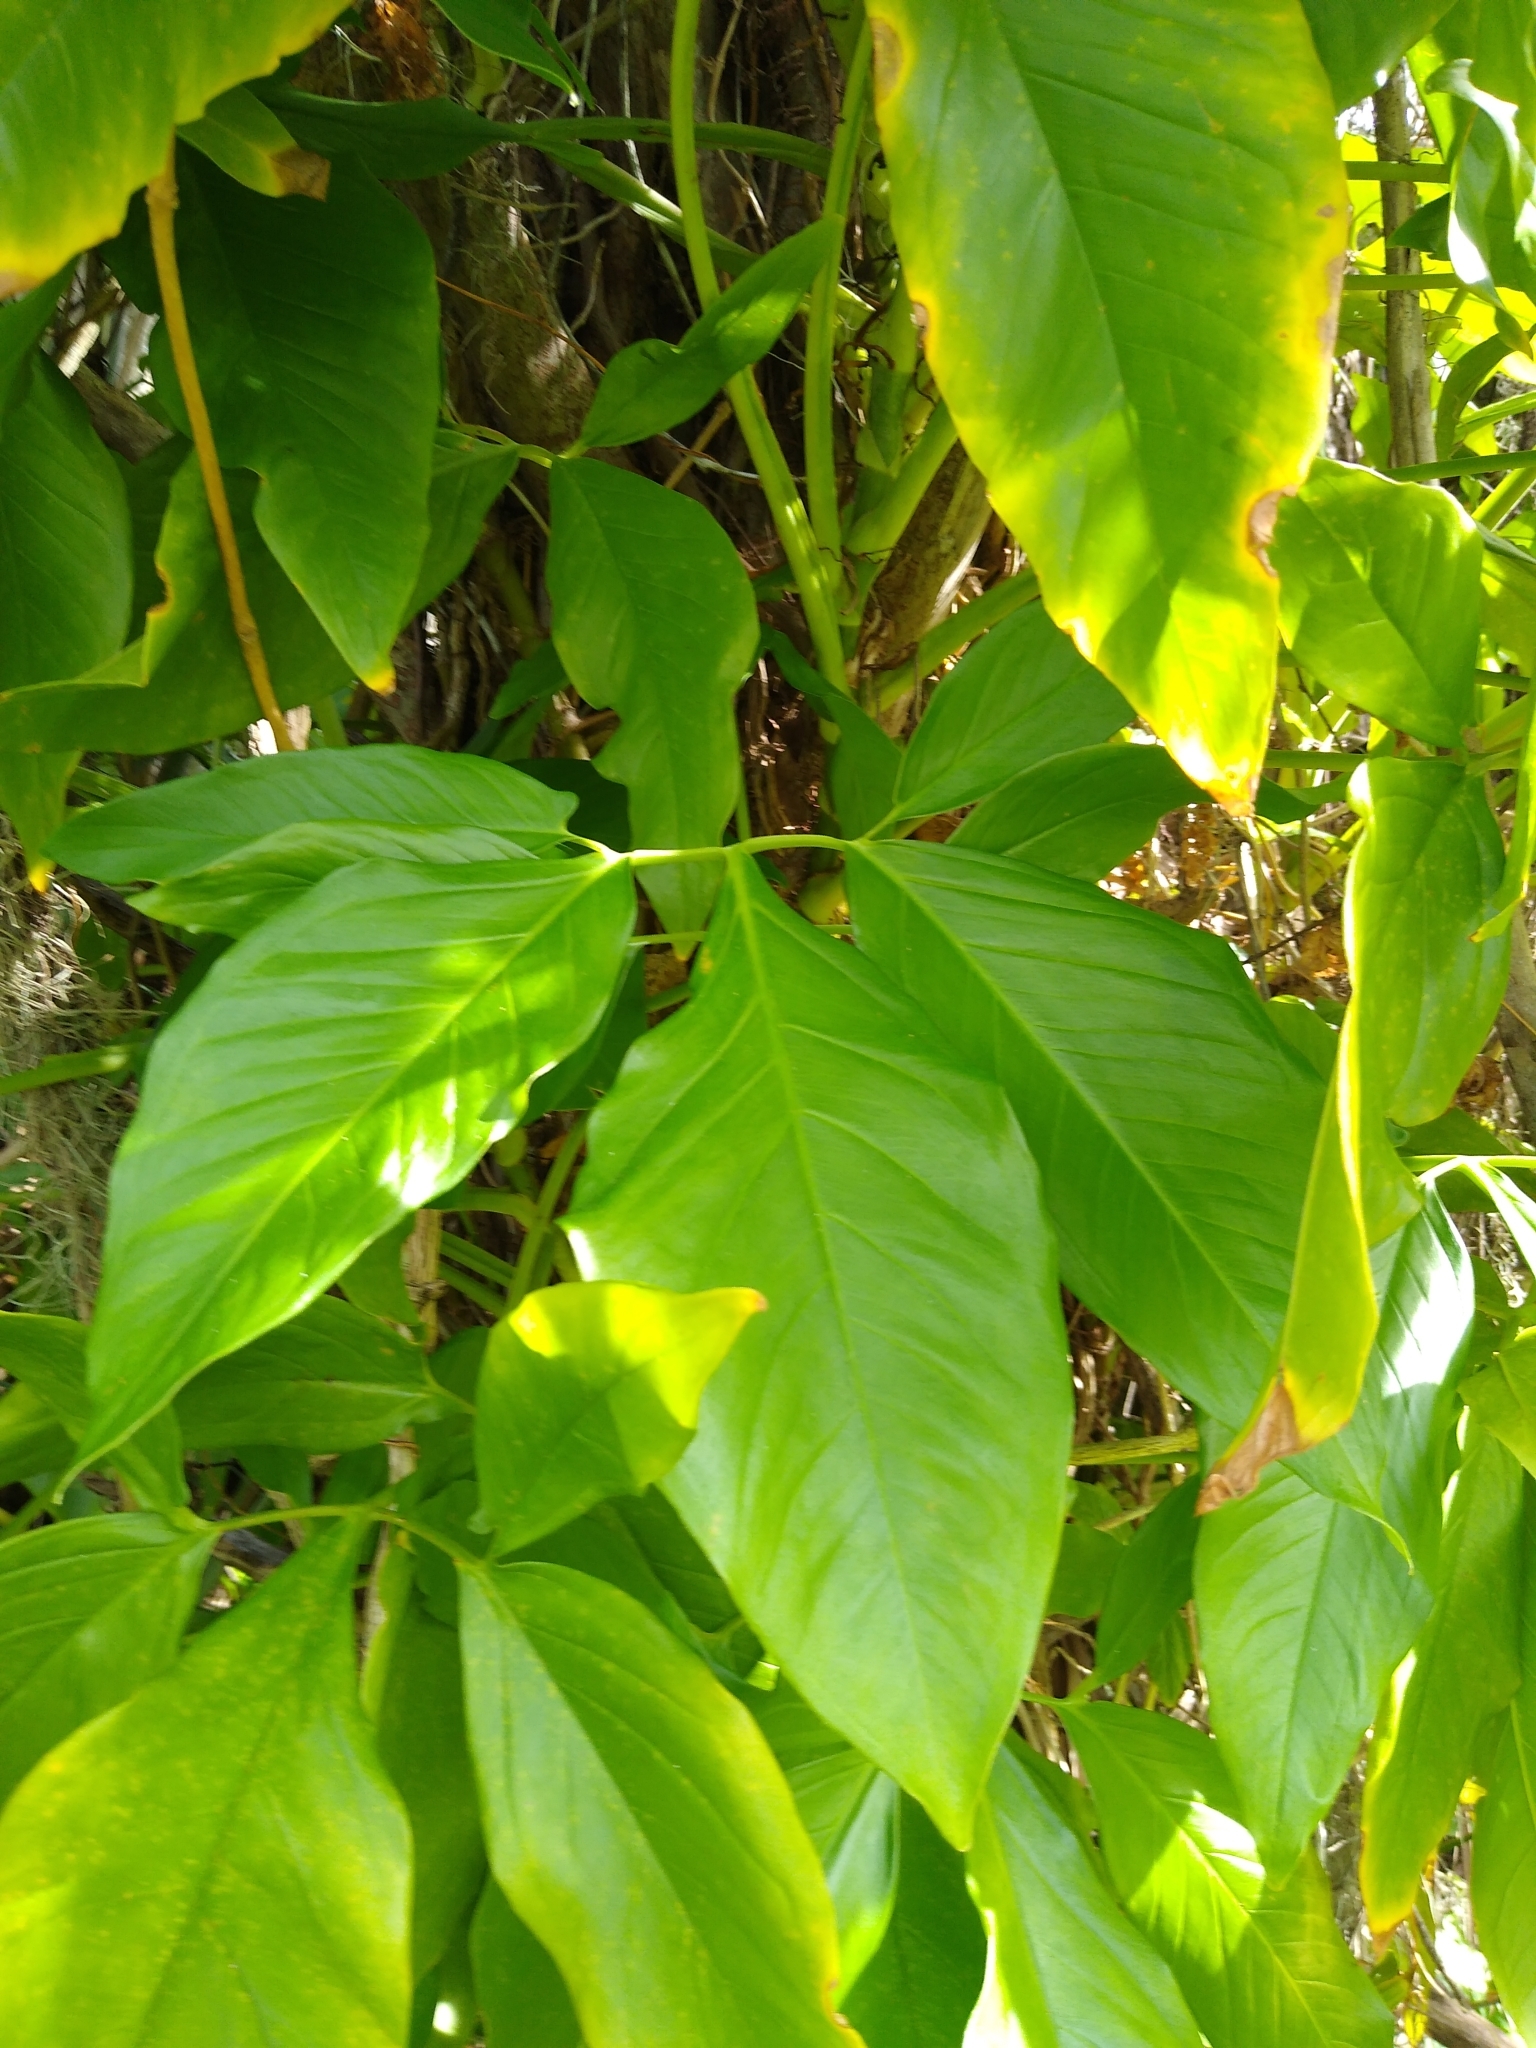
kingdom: Plantae
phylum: Tracheophyta
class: Liliopsida
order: Alismatales
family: Araceae
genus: Syngonium
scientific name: Syngonium podophyllum
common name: American evergreen
